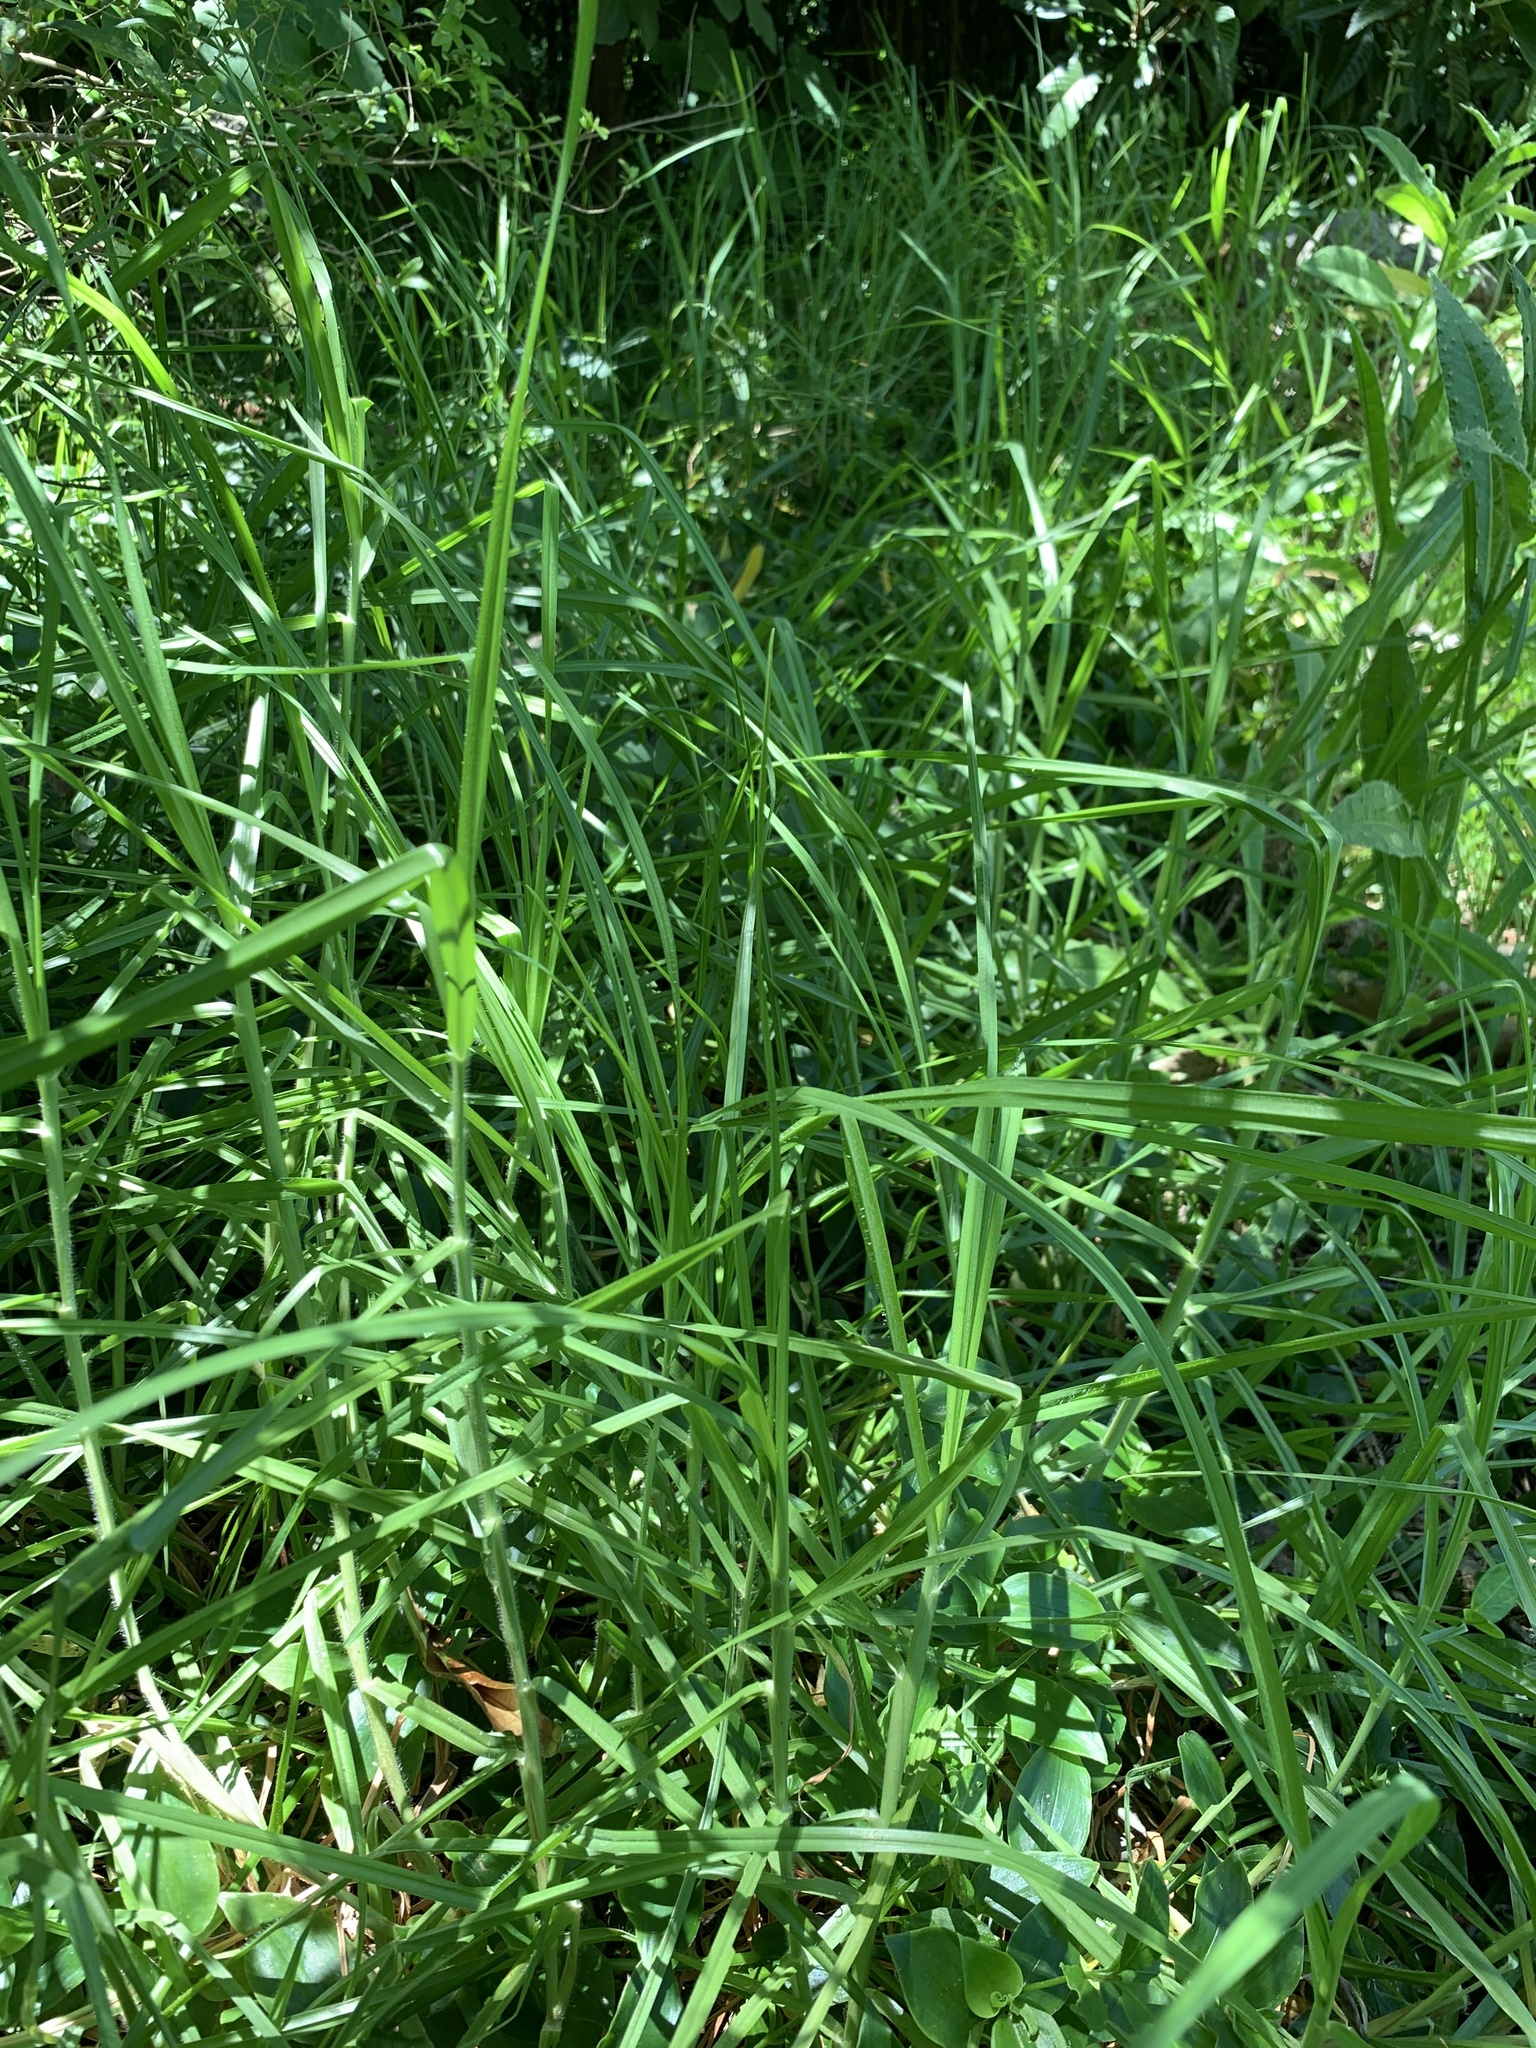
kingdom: Plantae
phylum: Tracheophyta
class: Liliopsida
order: Poales
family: Poaceae
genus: Cenchrus
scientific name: Cenchrus clandestinus
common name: Kikuyugrass
